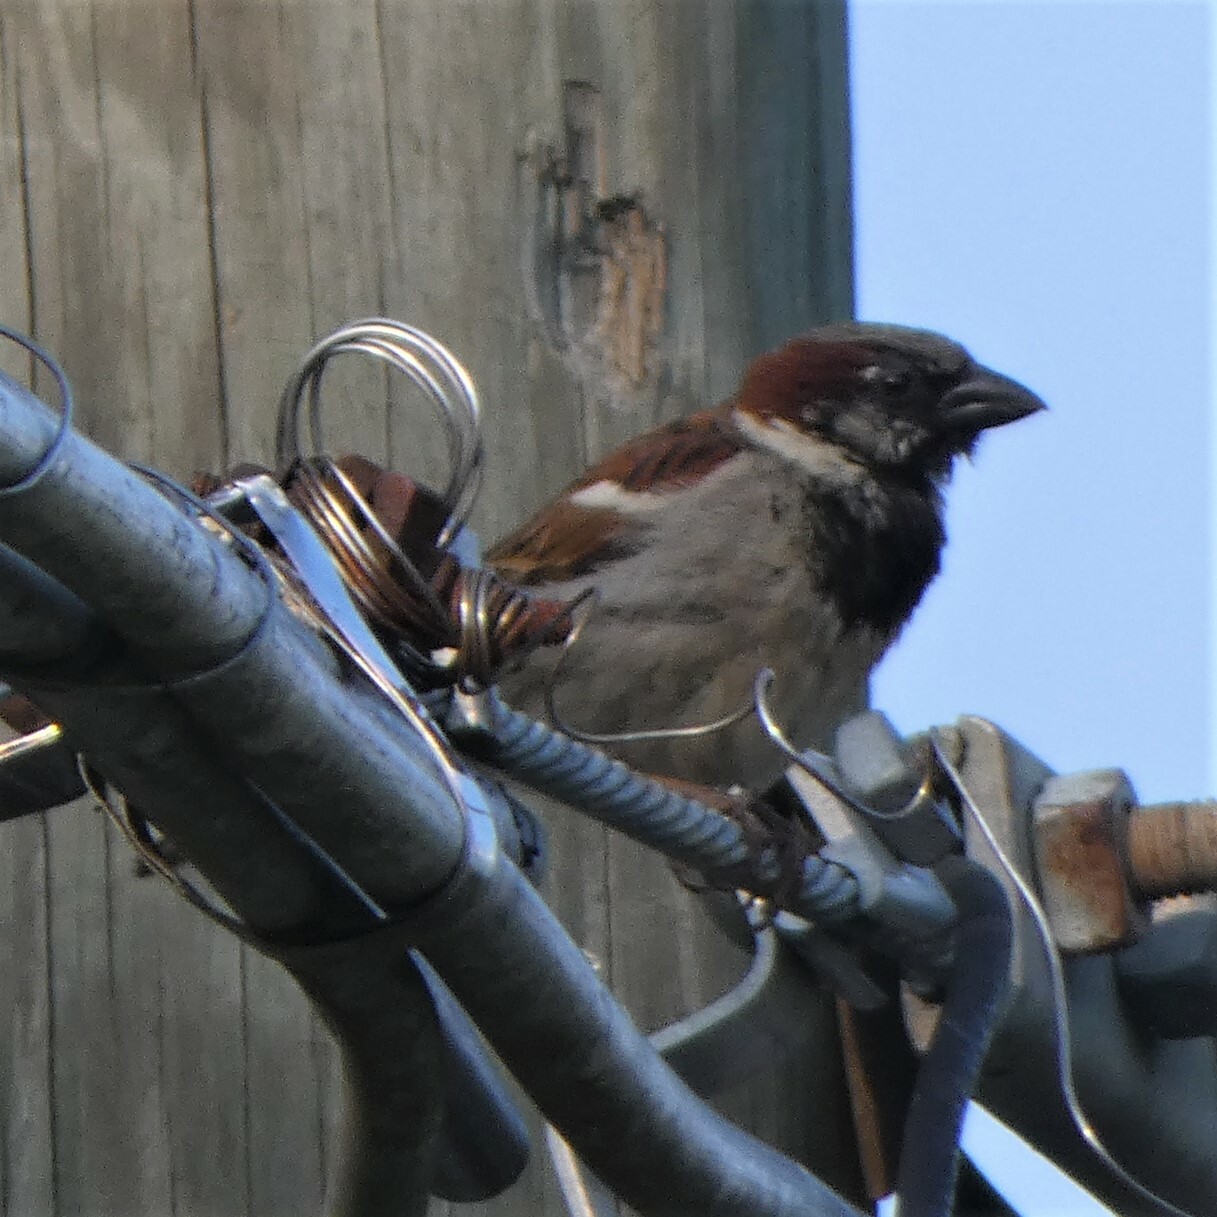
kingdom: Animalia
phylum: Chordata
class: Aves
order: Passeriformes
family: Passeridae
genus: Passer
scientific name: Passer domesticus
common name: House sparrow
